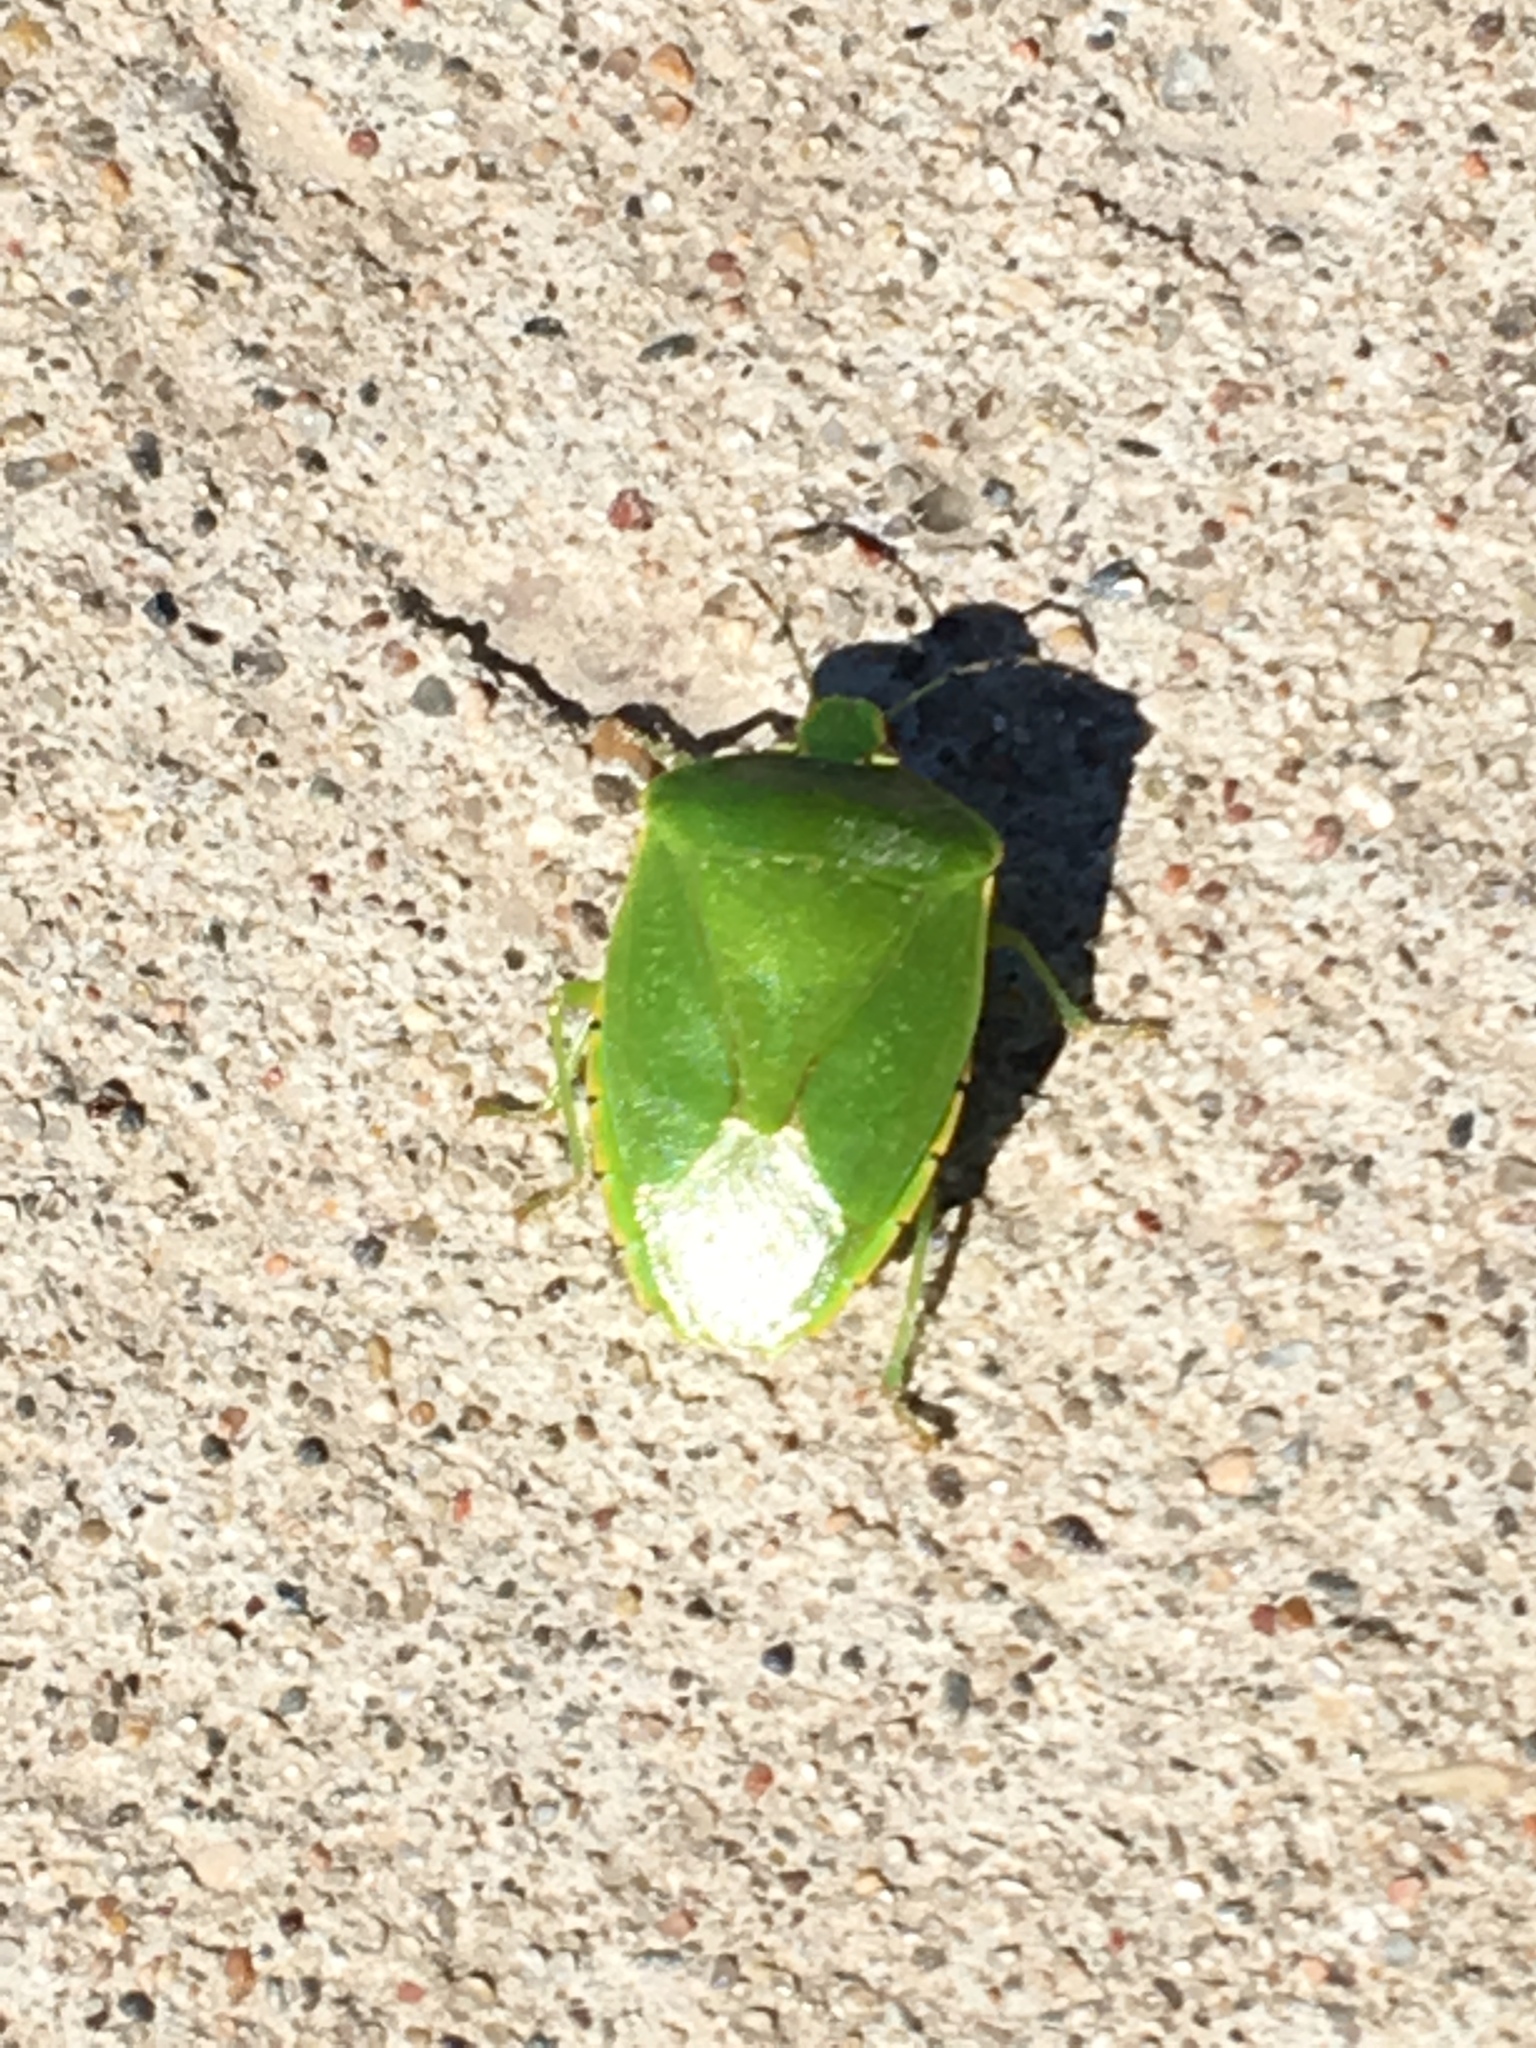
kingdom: Animalia
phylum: Arthropoda
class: Insecta
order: Hemiptera
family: Pentatomidae
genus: Chinavia
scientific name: Chinavia hilaris
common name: Green stink bug
